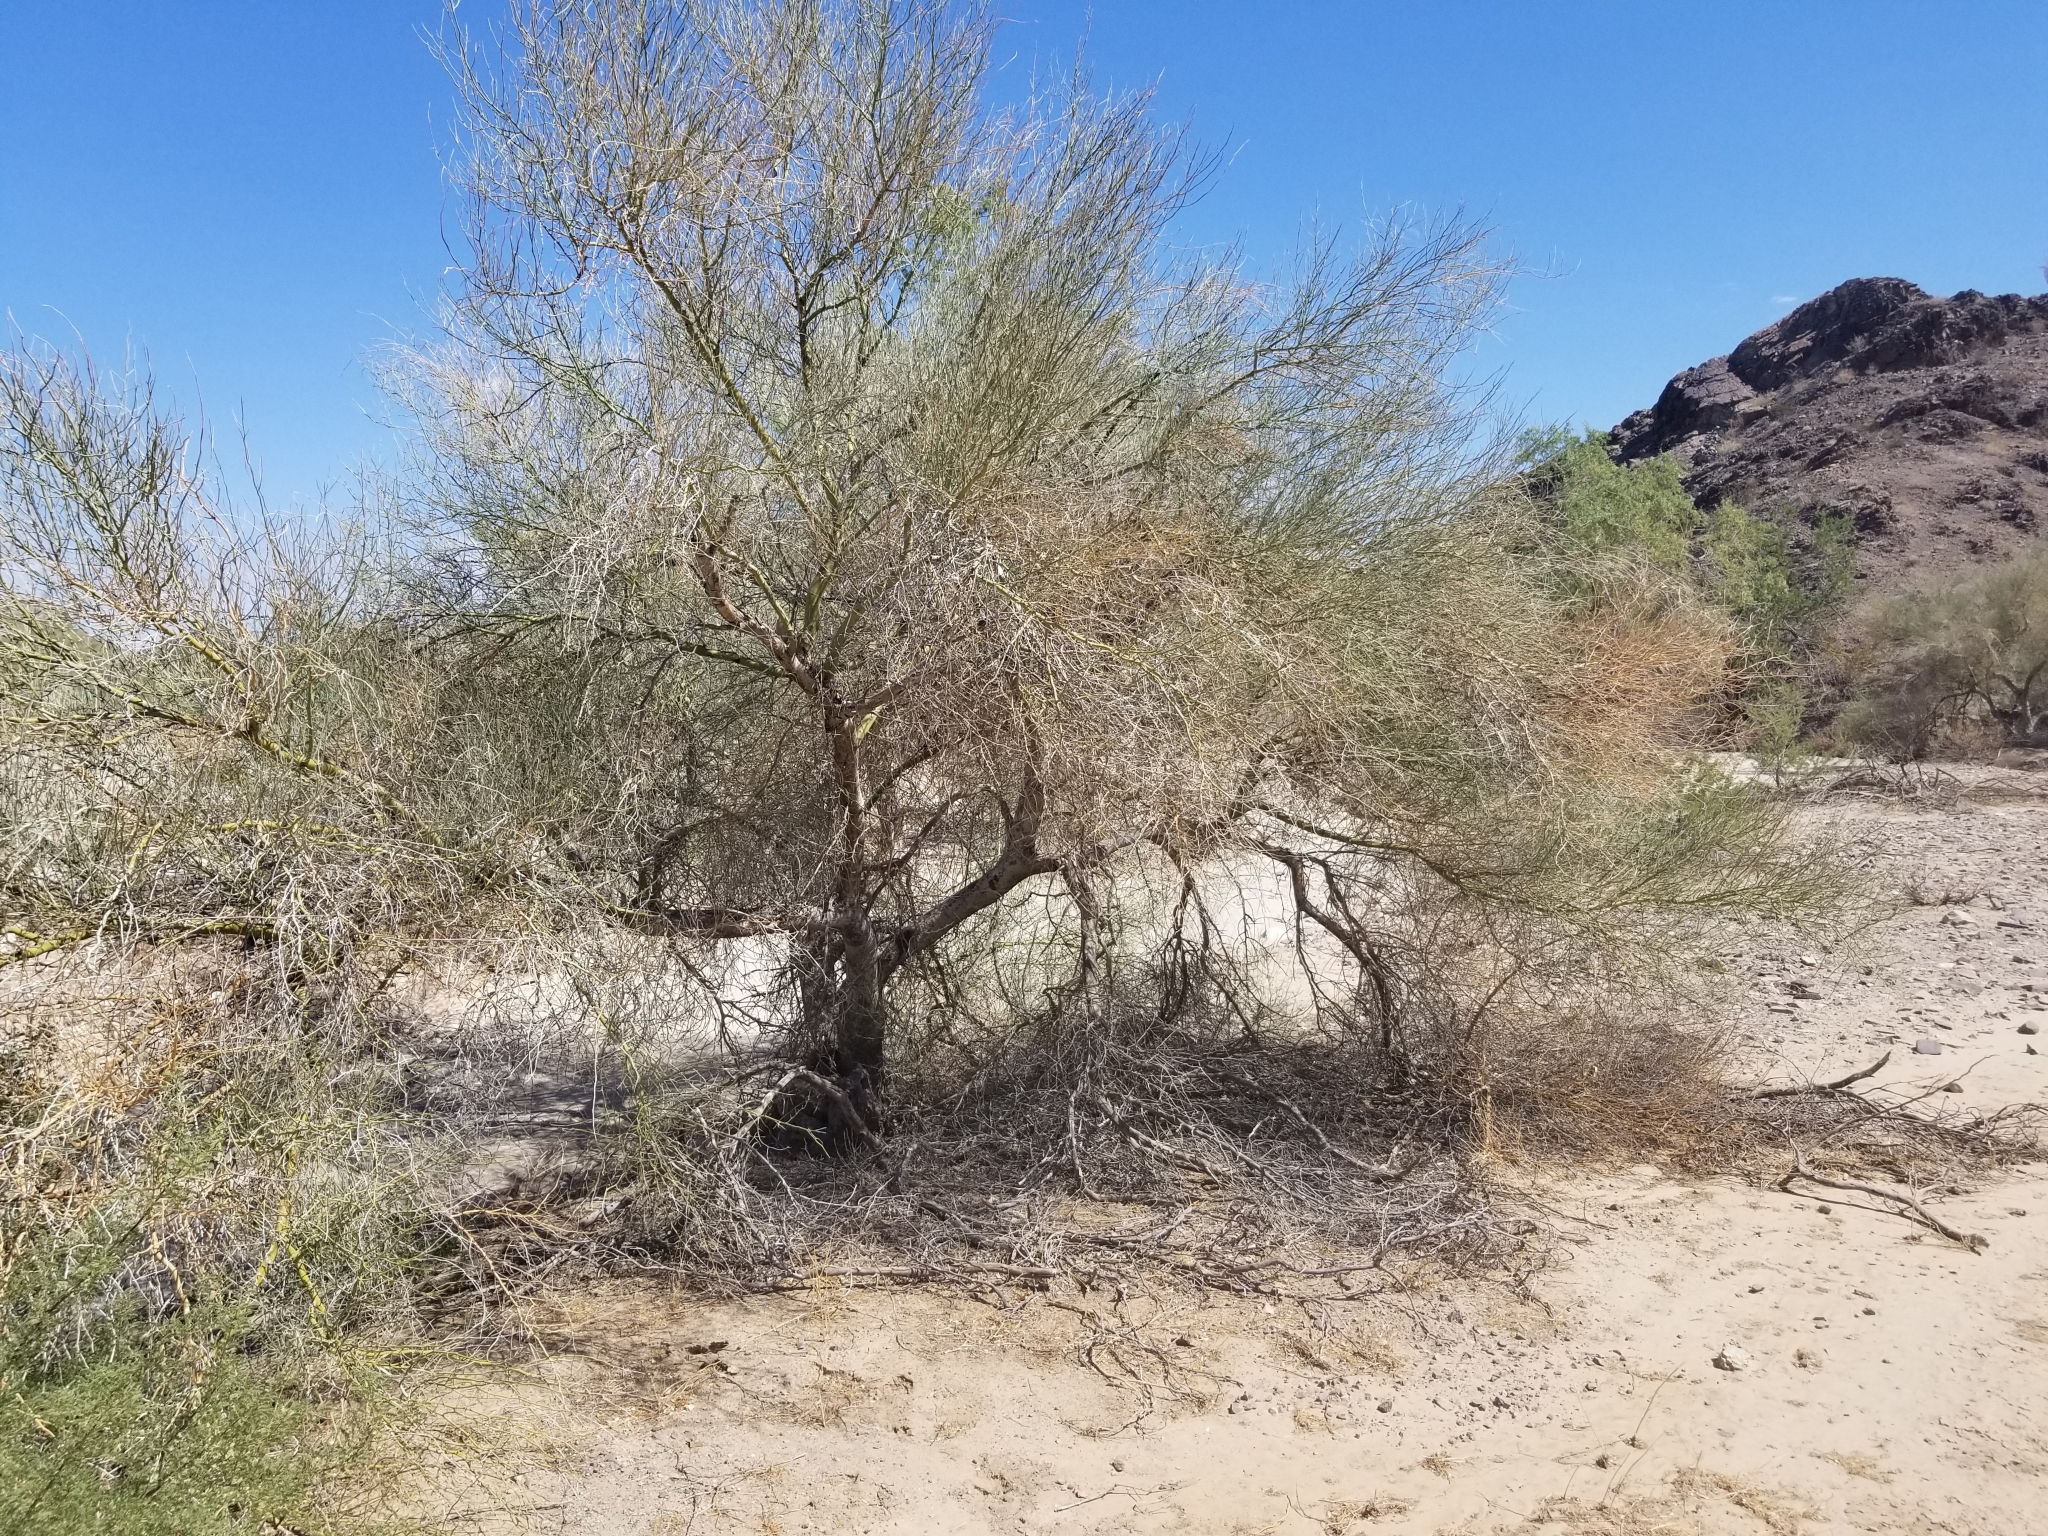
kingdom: Plantae
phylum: Tracheophyta
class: Magnoliopsida
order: Fabales
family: Fabaceae
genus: Parkinsonia
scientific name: Parkinsonia florida
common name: Blue paloverde
